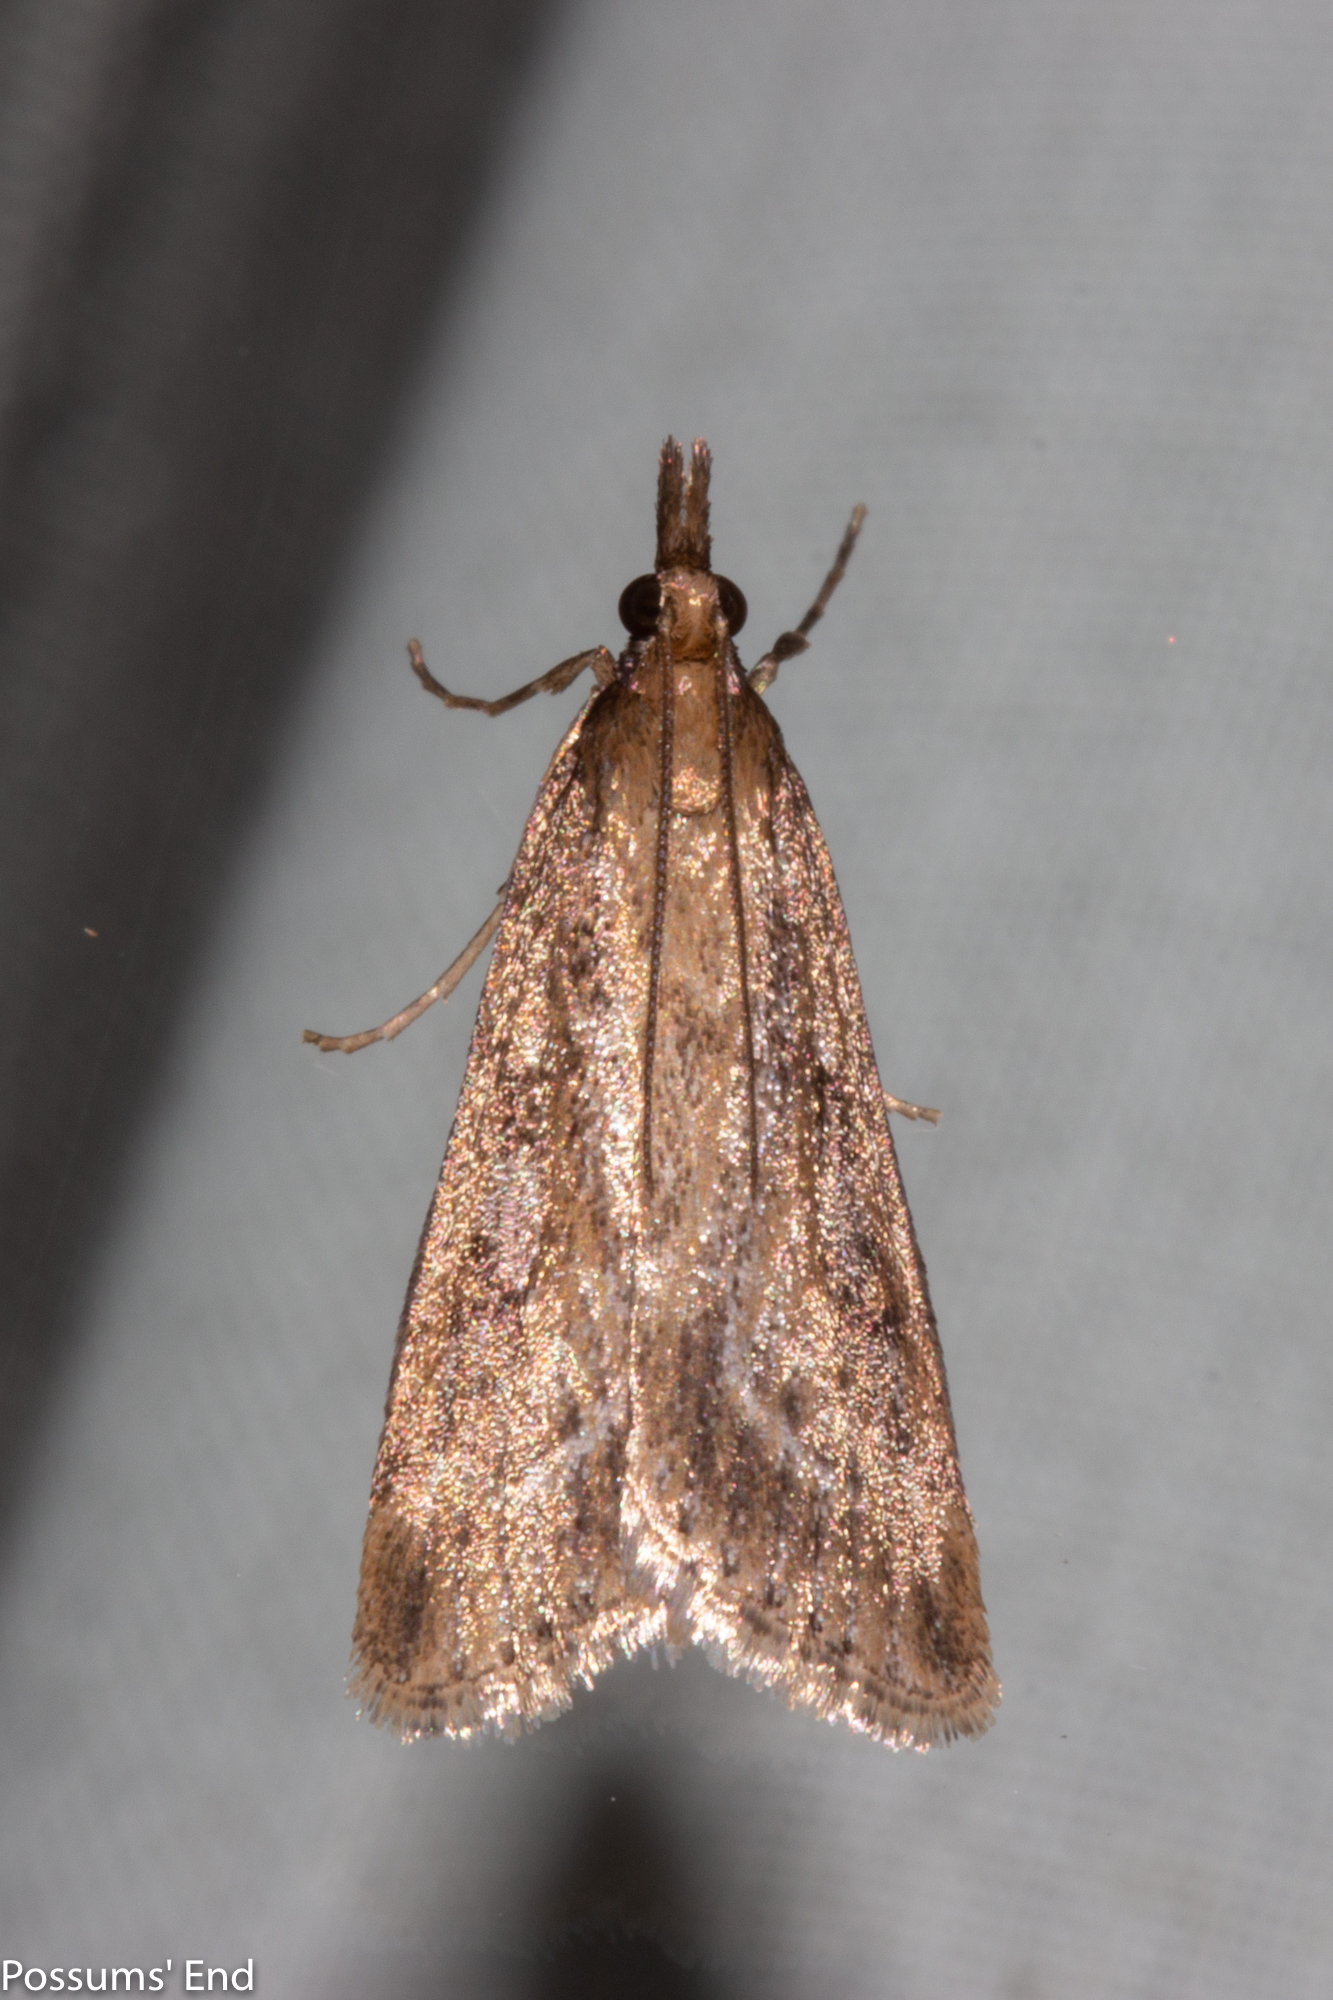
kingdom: Animalia
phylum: Arthropoda
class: Insecta
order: Lepidoptera
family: Crambidae
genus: Eudonia
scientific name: Eudonia octophora
